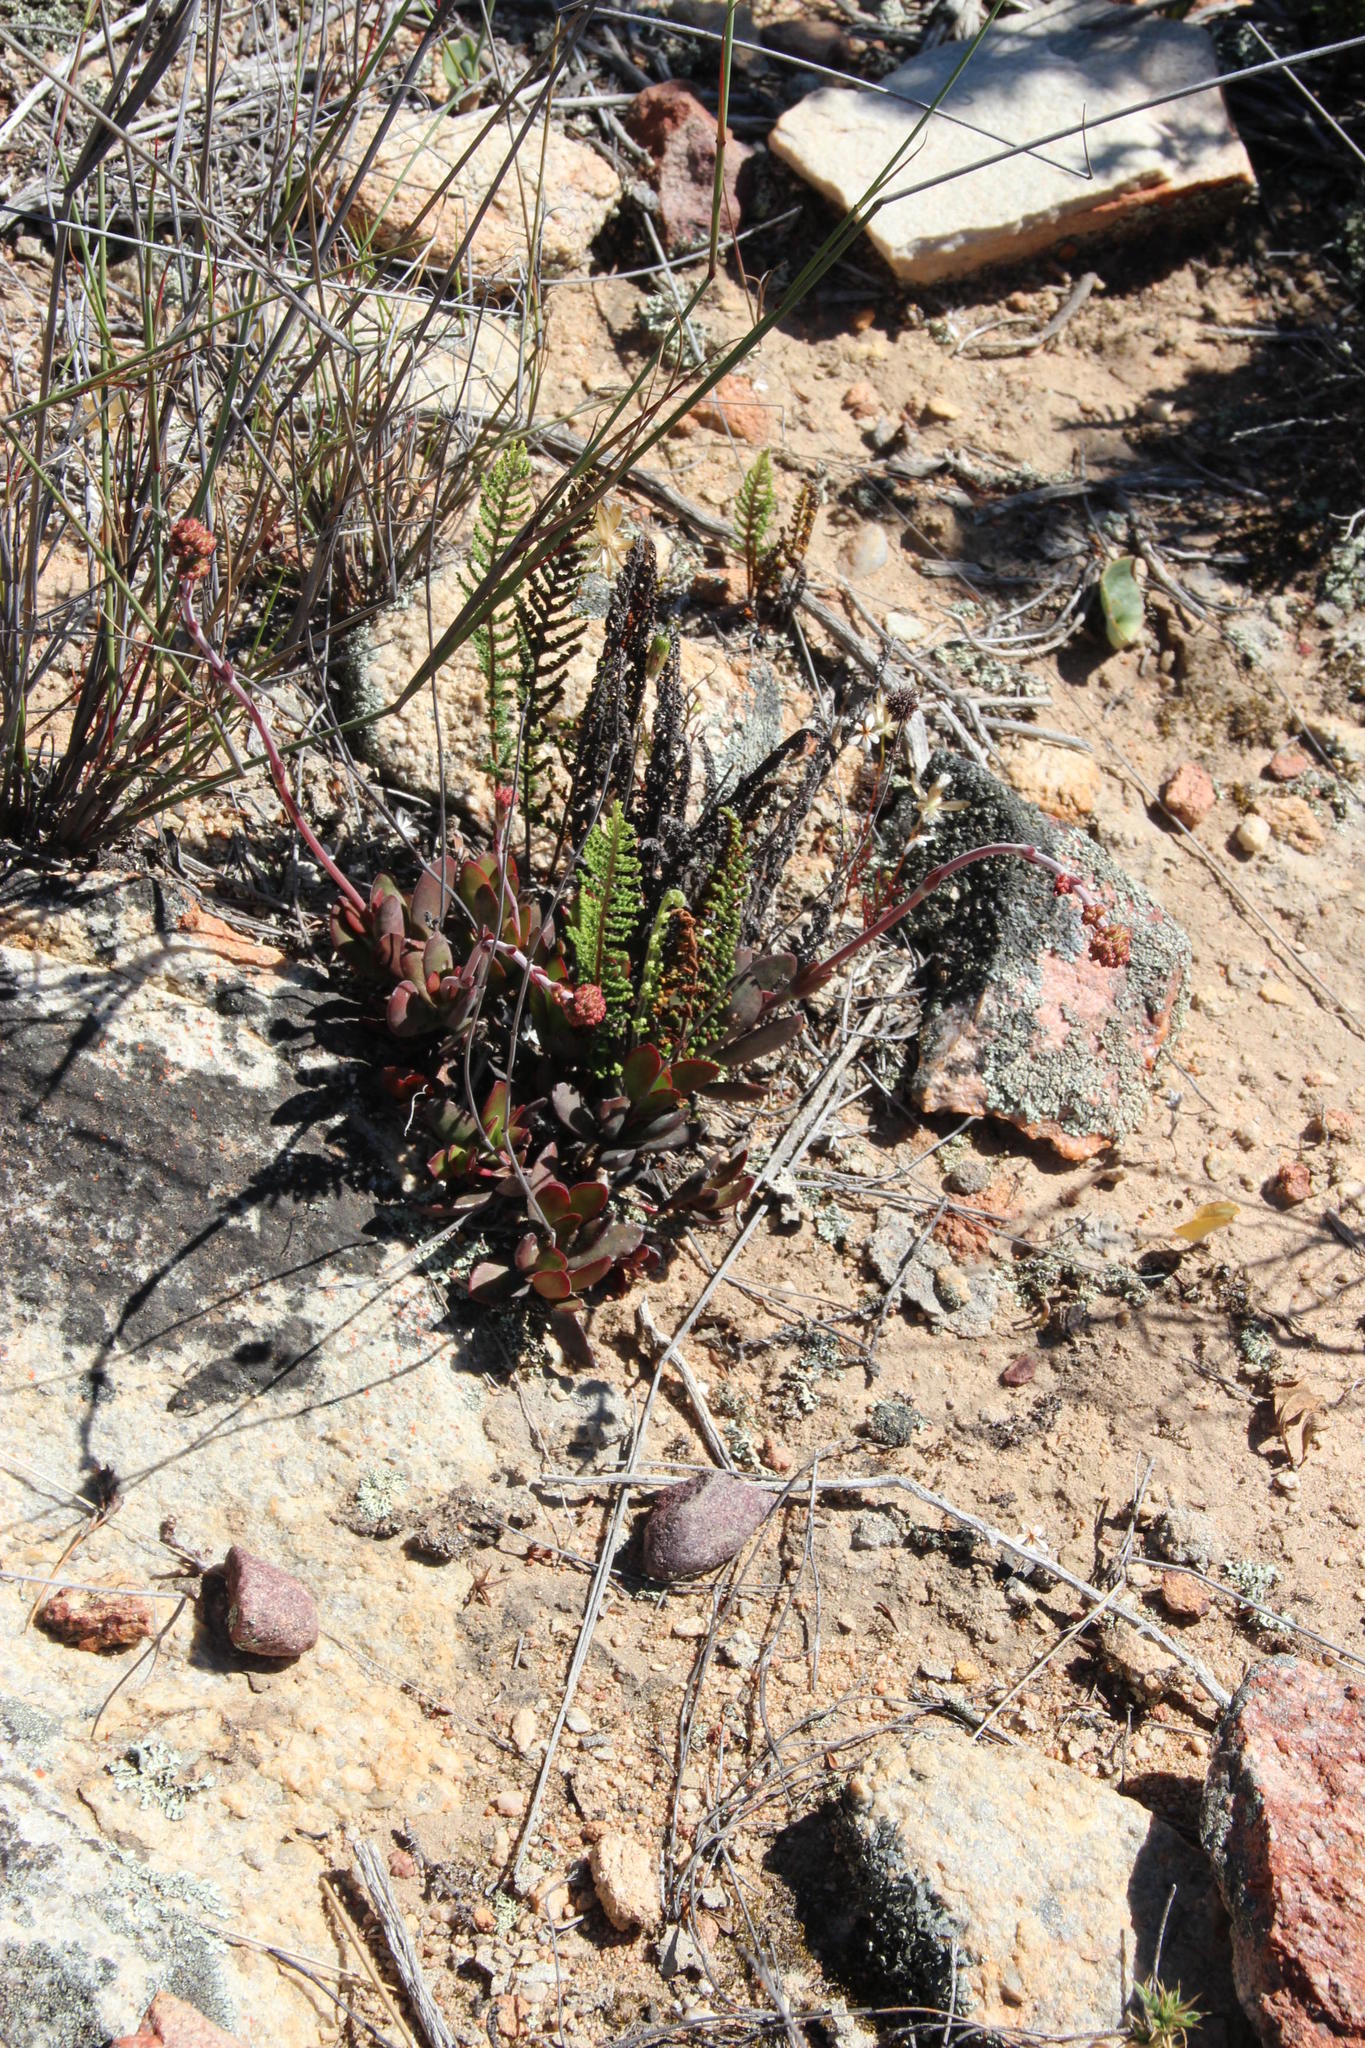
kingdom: Plantae
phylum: Tracheophyta
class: Polypodiopsida
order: Polypodiales
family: Pteridaceae
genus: Cheilanthes
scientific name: Cheilanthes contracta
